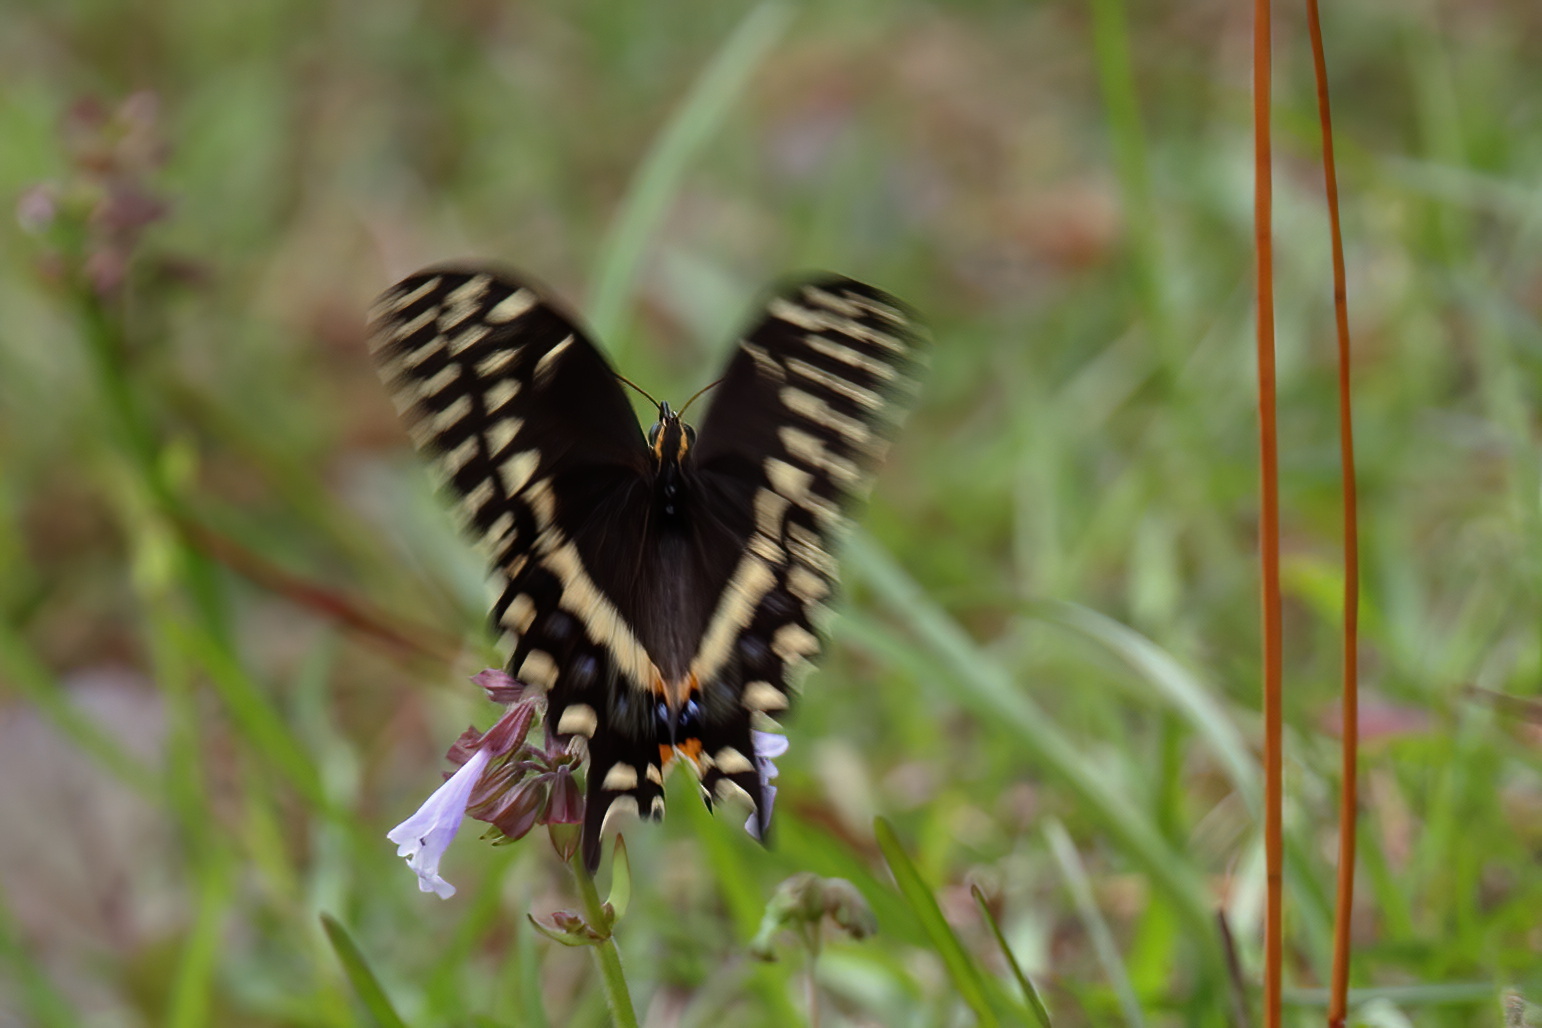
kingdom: Animalia
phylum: Arthropoda
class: Insecta
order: Lepidoptera
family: Papilionidae
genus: Papilio
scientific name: Papilio palamedes
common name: Palamedes swallowtail
